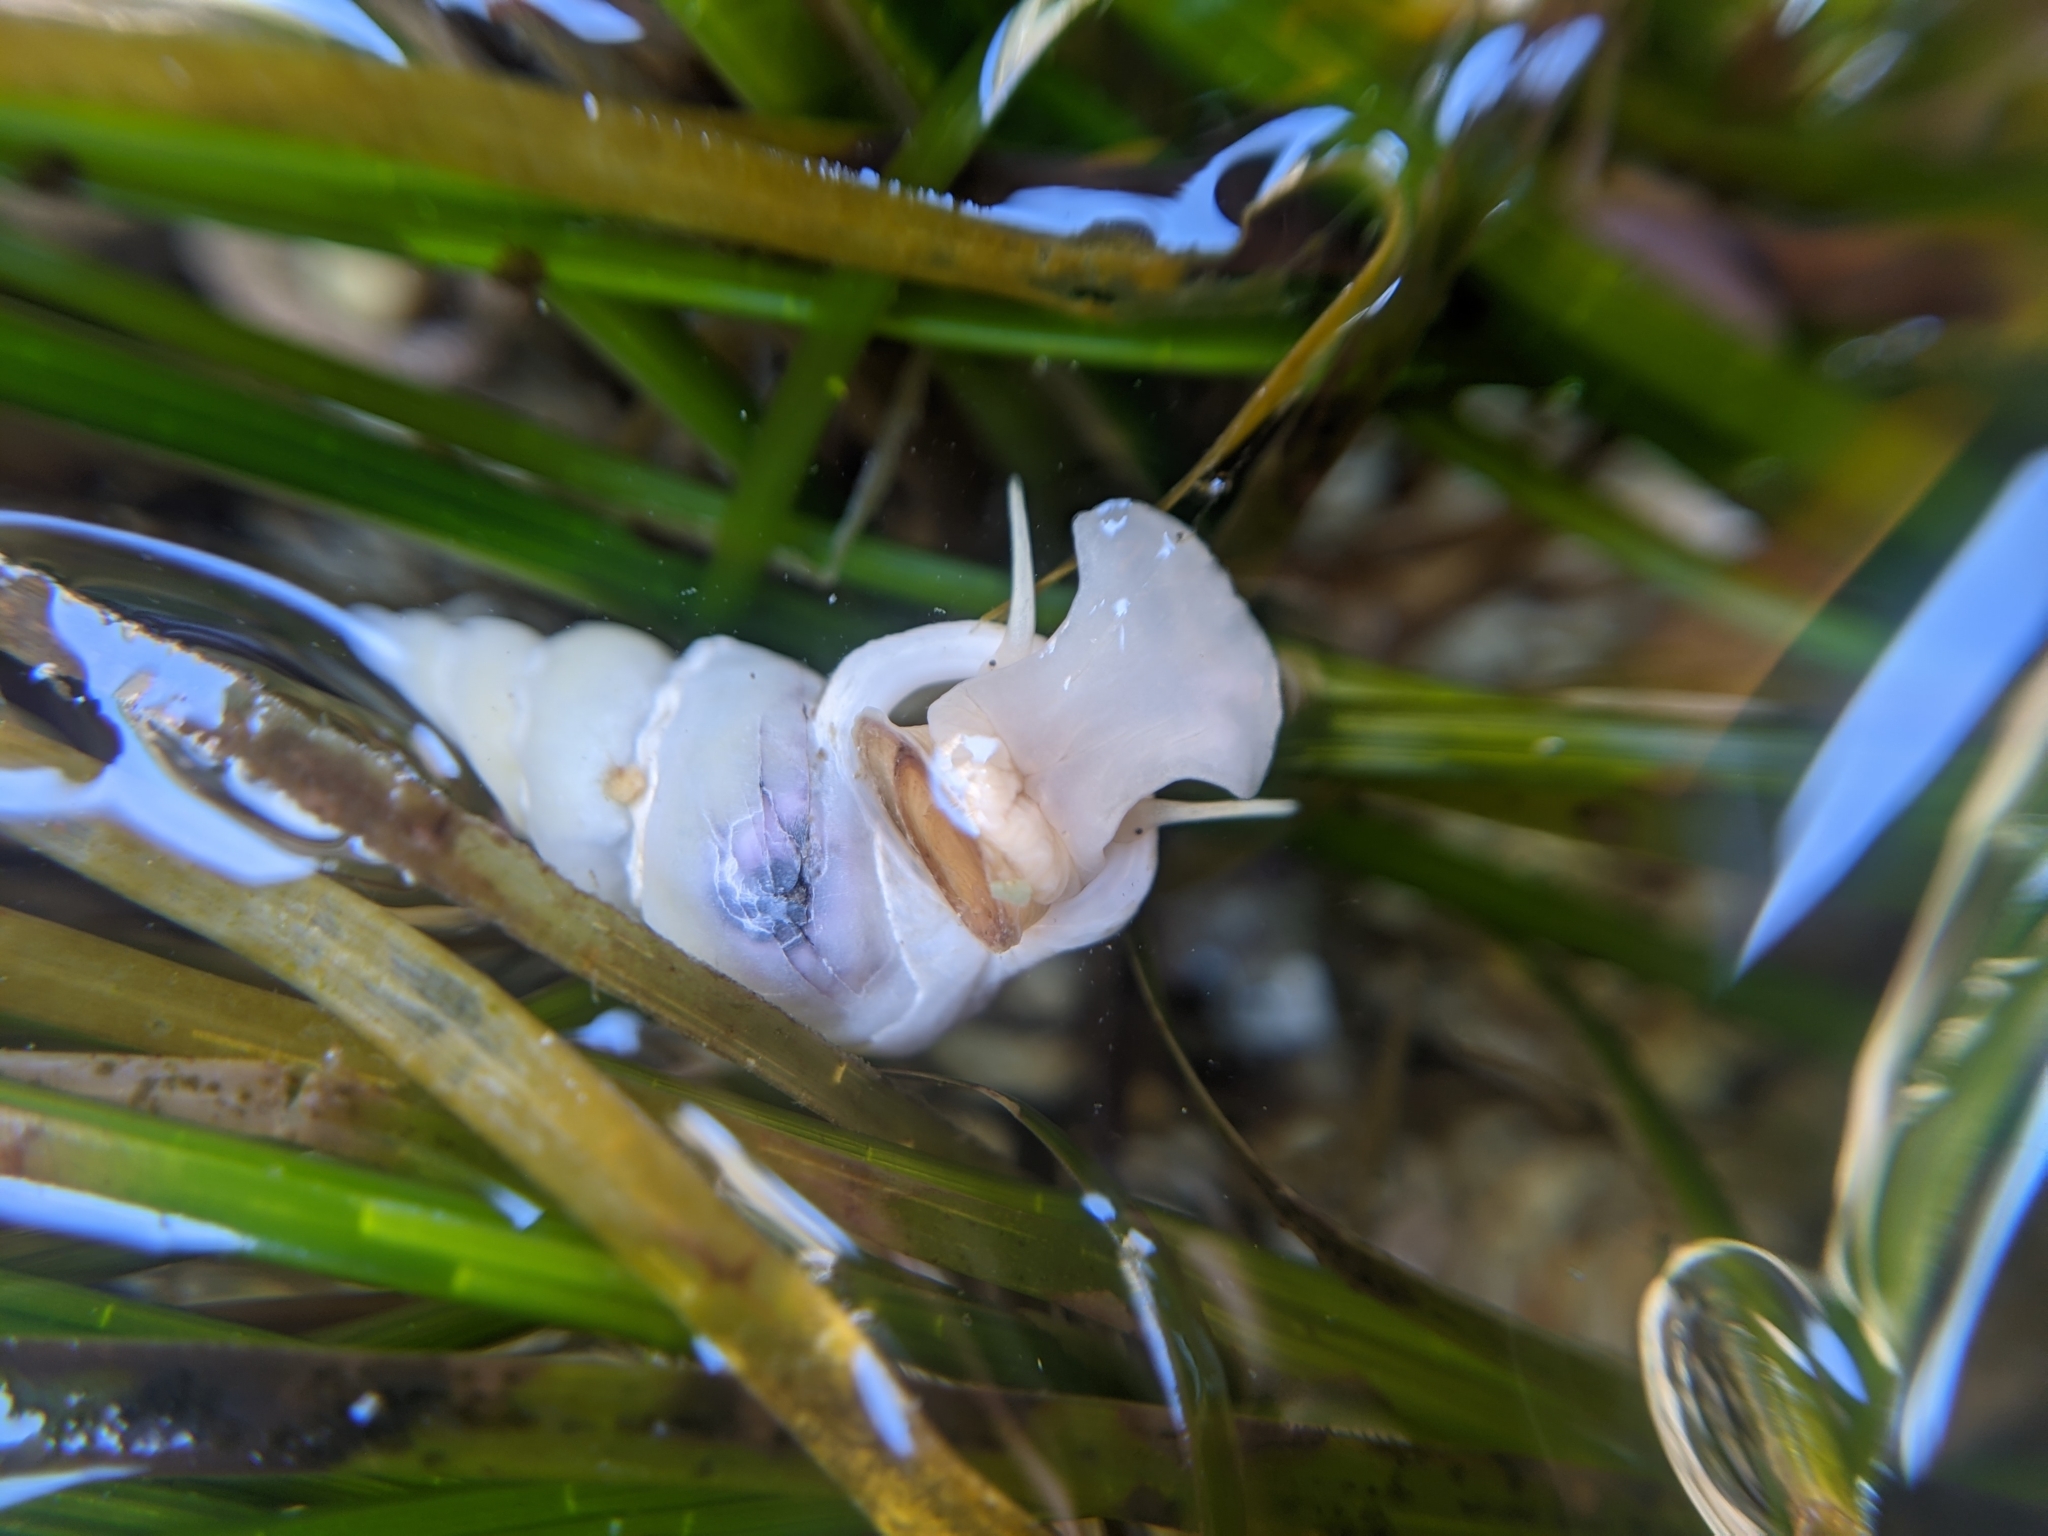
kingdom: Animalia
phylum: Mollusca
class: Gastropoda
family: Epitoniidae
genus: Opalia
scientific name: Opalia funiculata
